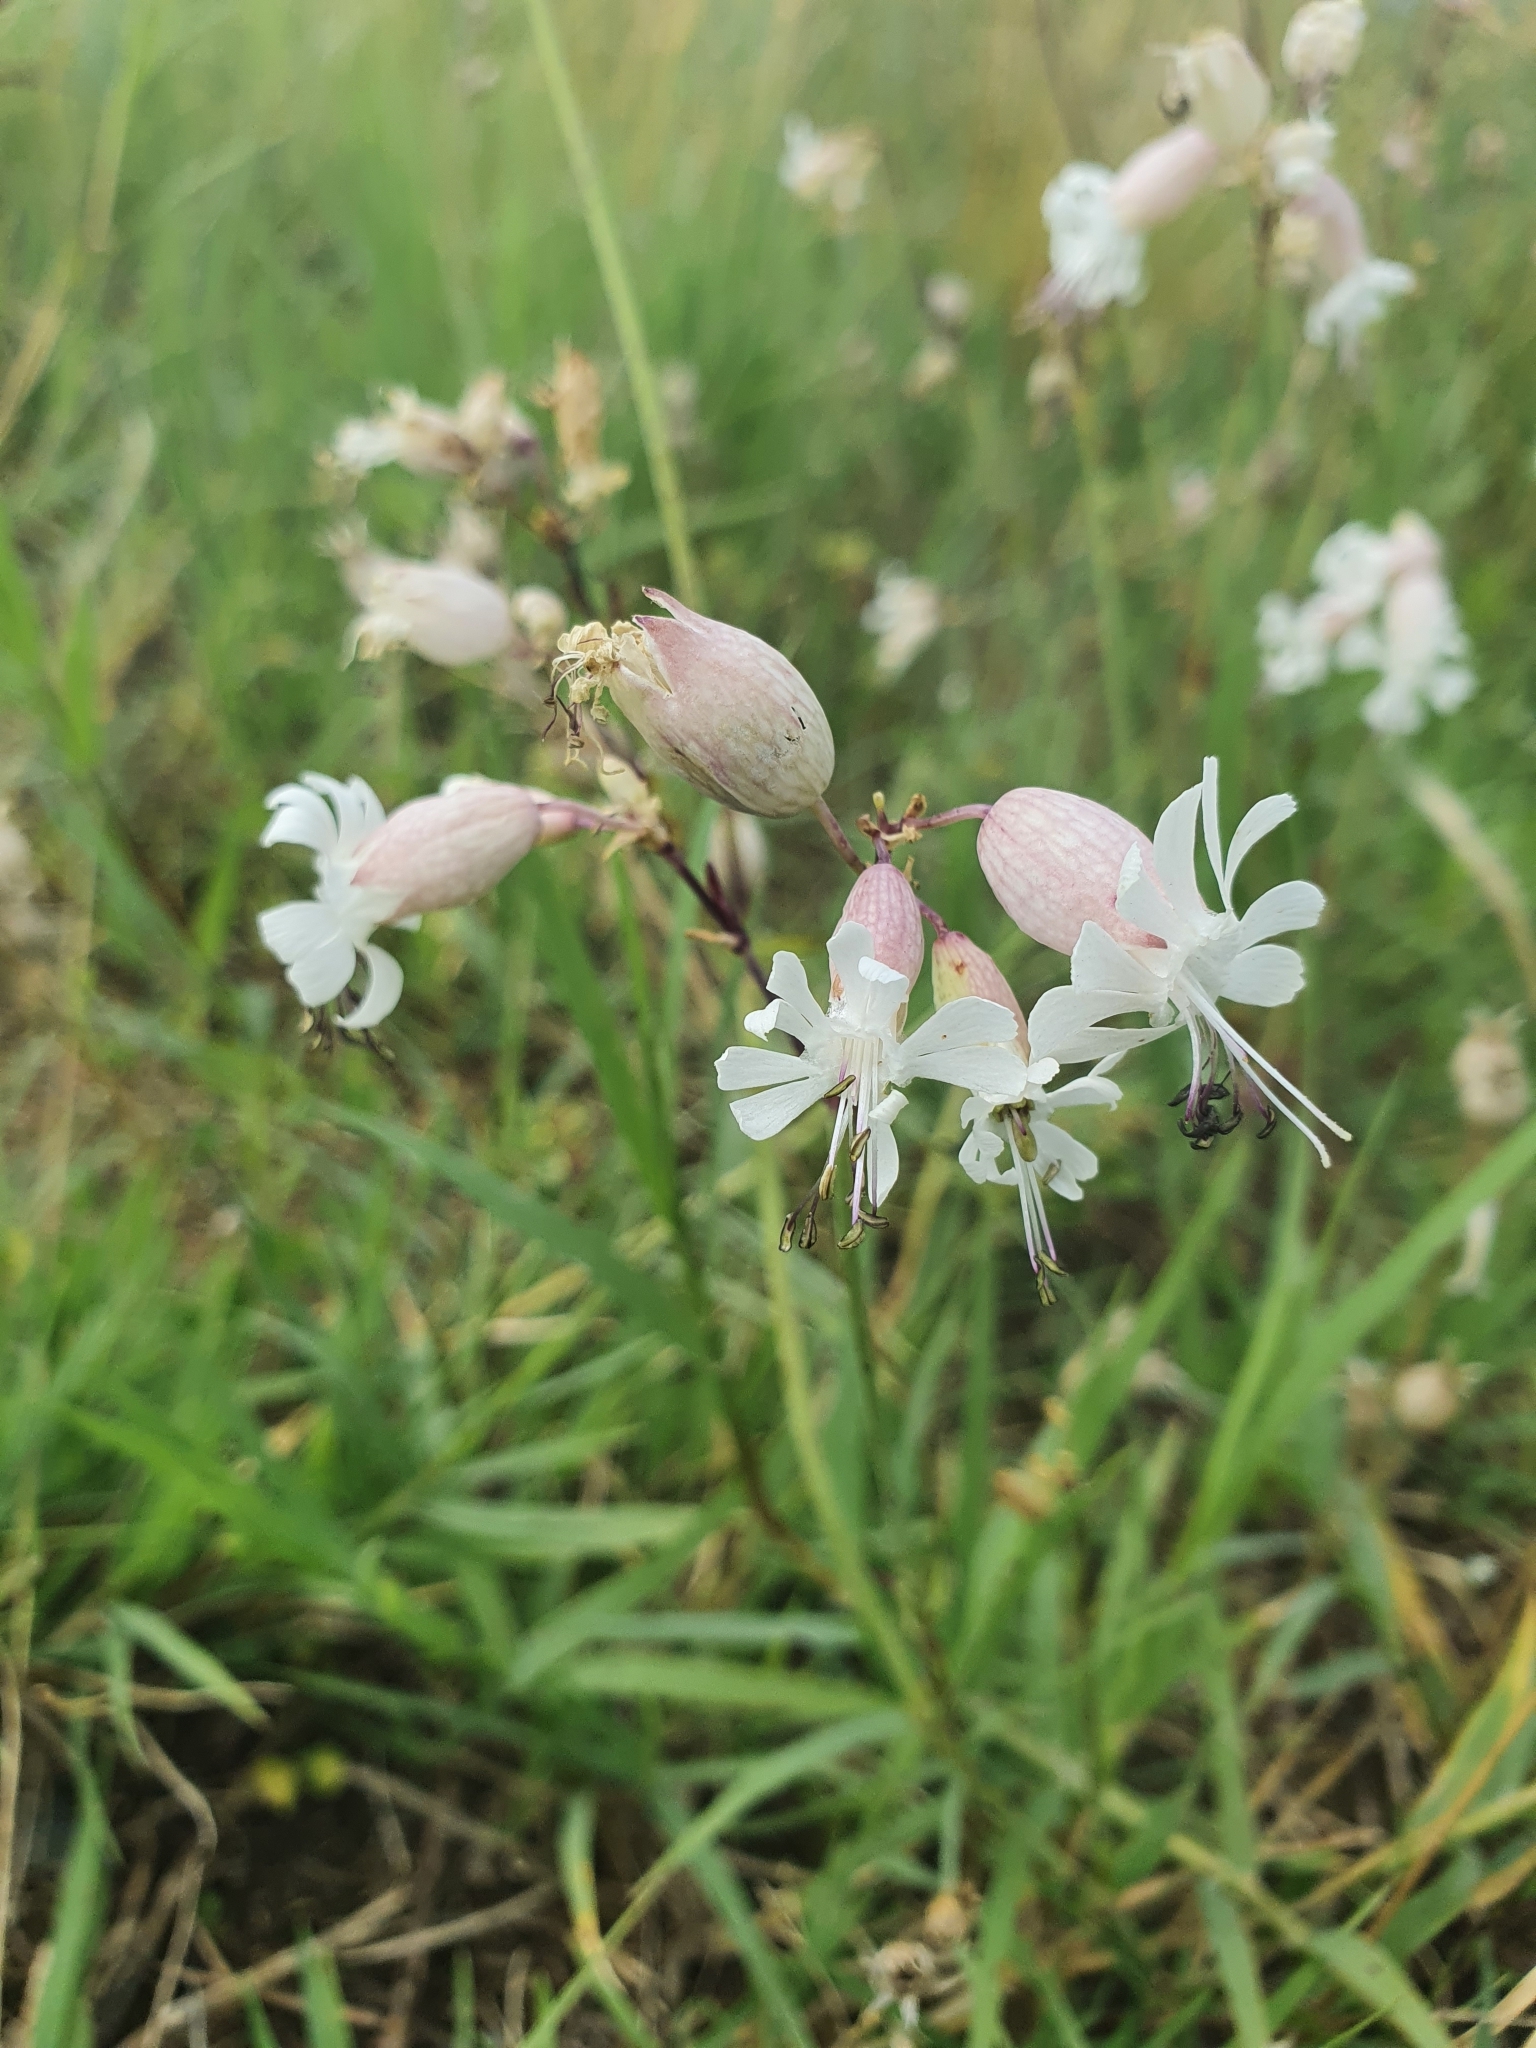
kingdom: Plantae
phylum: Tracheophyta
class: Magnoliopsida
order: Caryophyllales
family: Caryophyllaceae
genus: Silene
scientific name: Silene vulgaris
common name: Bladder campion
